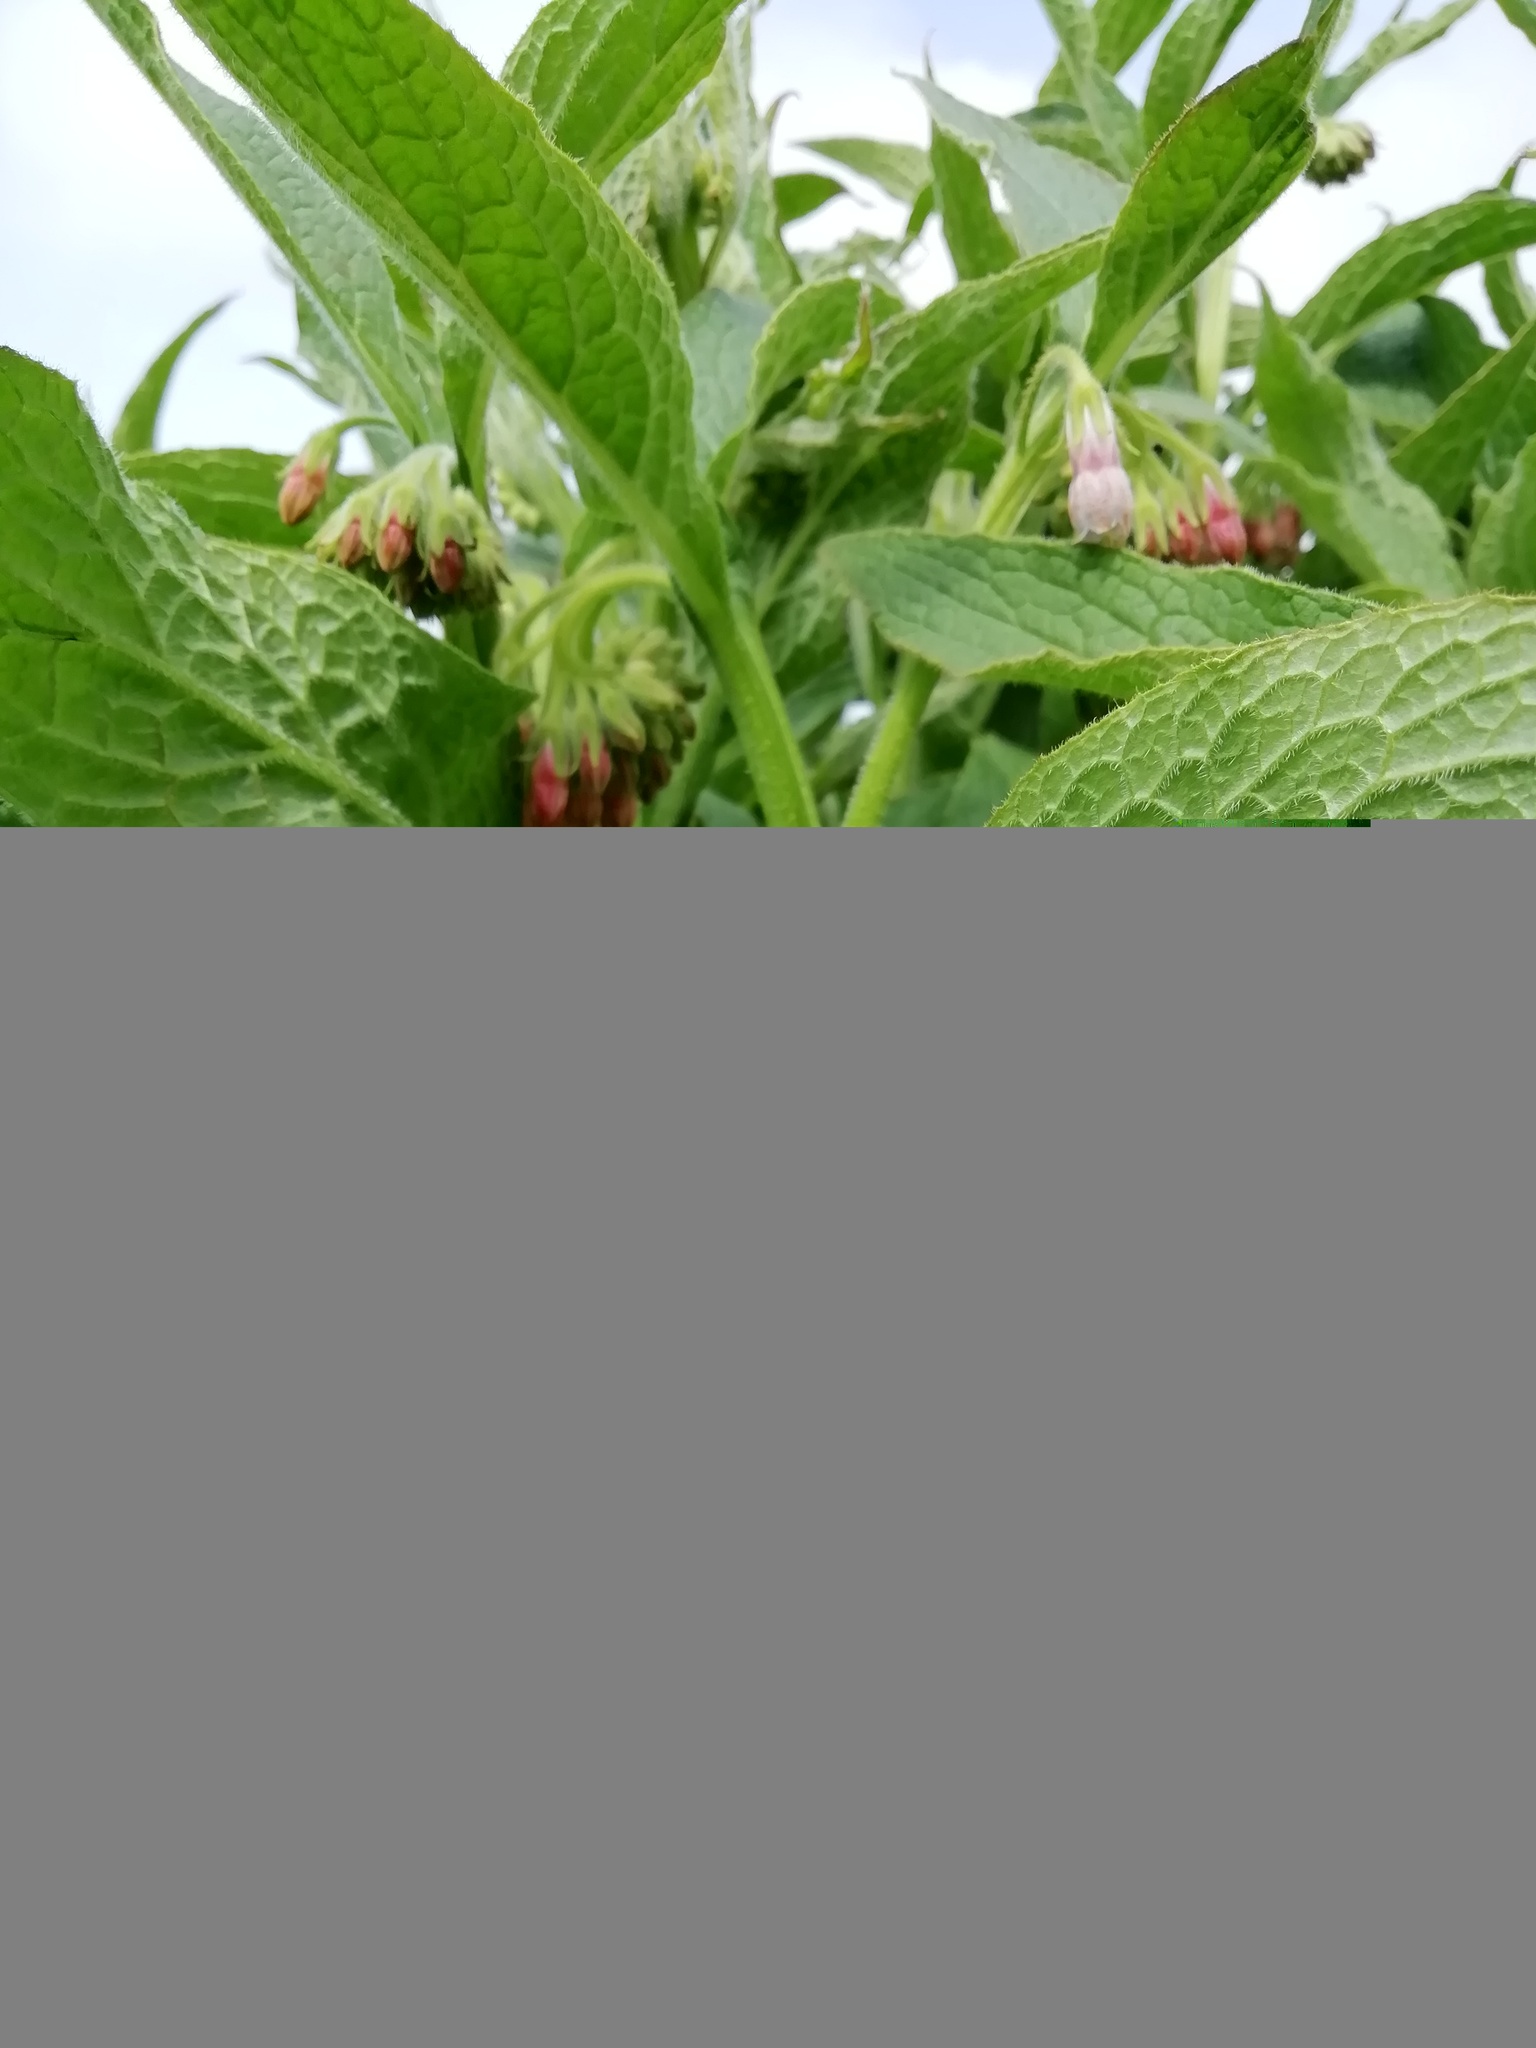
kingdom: Plantae
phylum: Tracheophyta
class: Magnoliopsida
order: Boraginales
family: Boraginaceae
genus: Symphytum
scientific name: Symphytum uplandicum
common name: Russian comfrey
